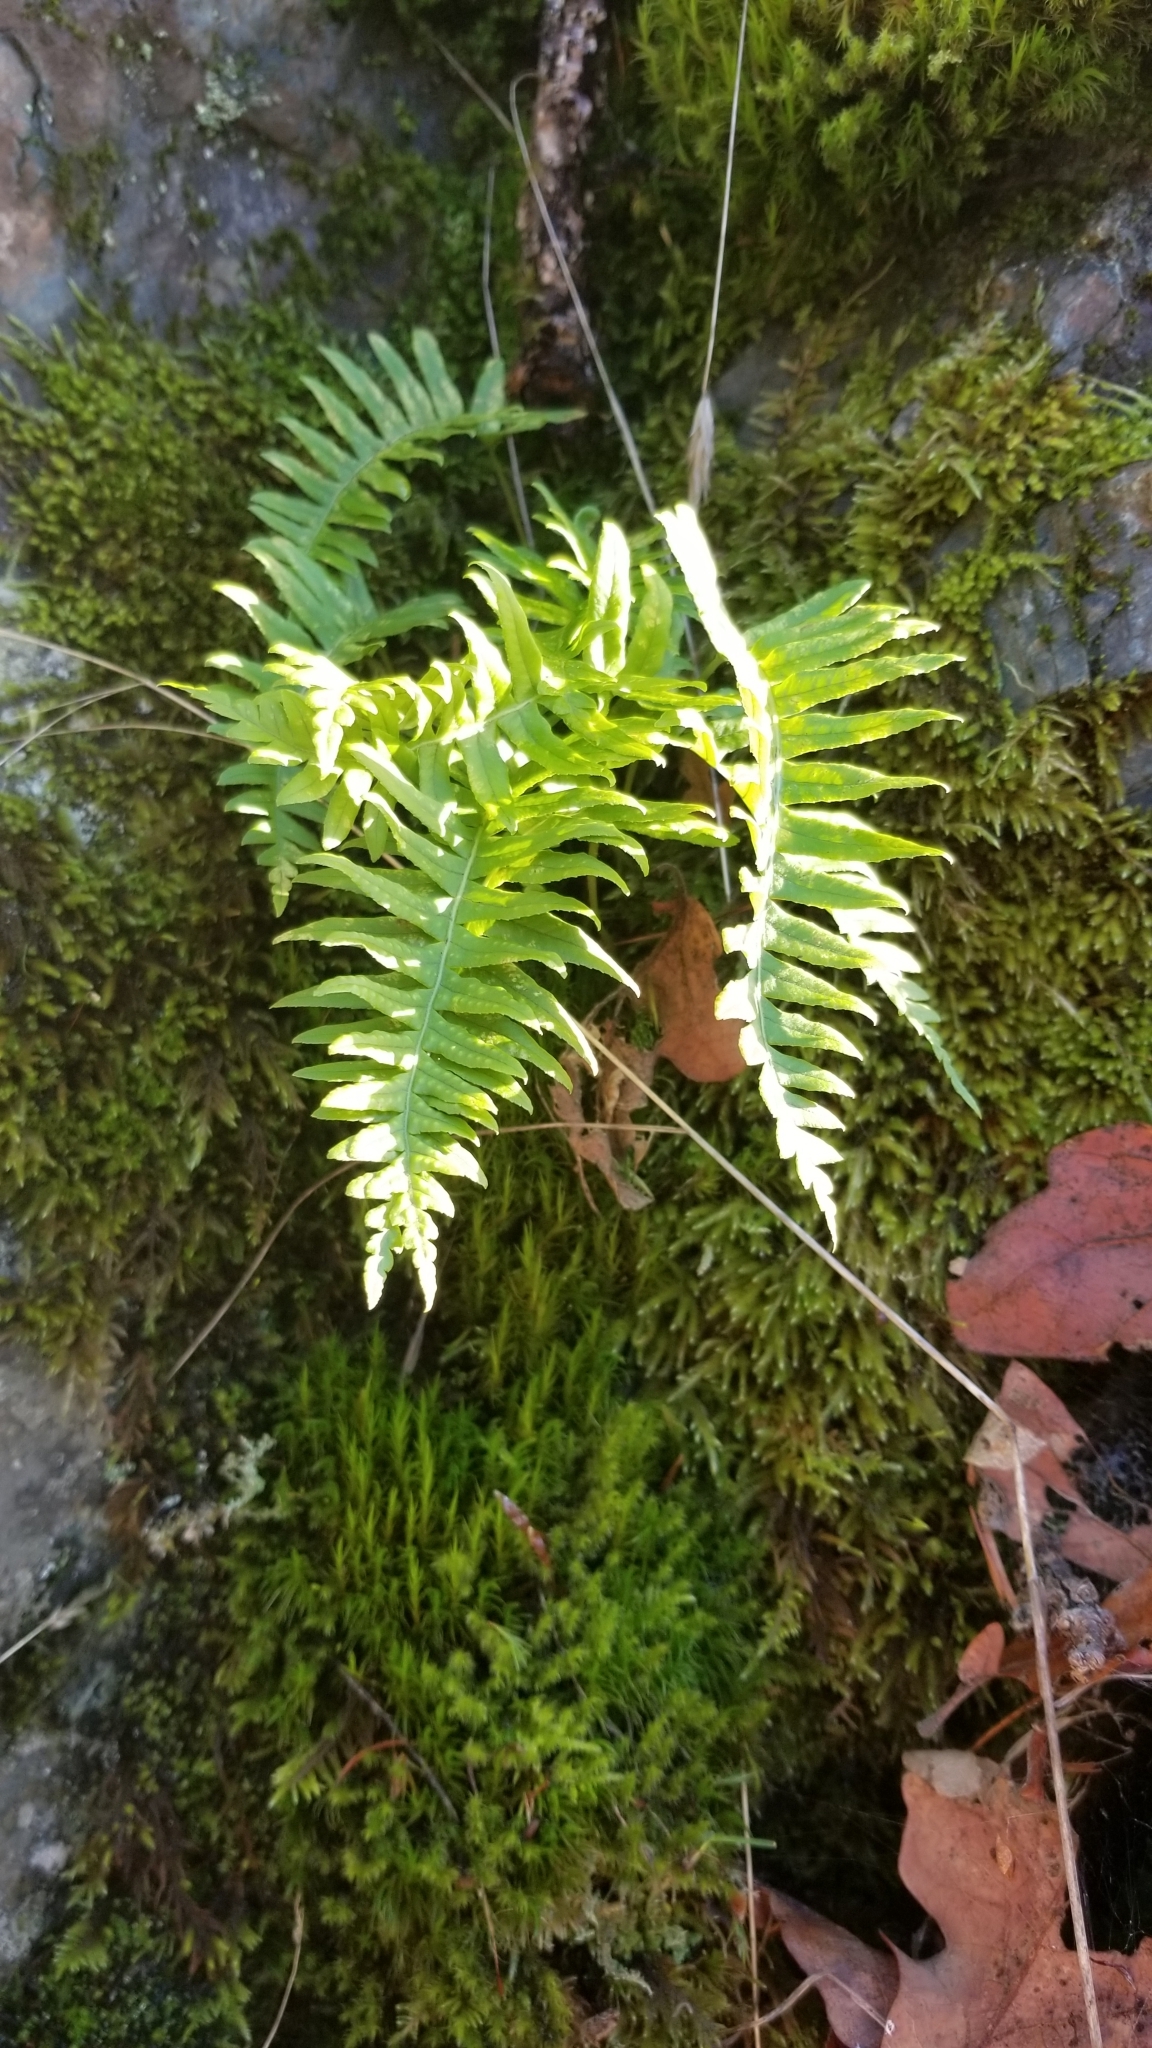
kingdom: Plantae
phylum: Tracheophyta
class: Polypodiopsida
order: Polypodiales
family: Polypodiaceae
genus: Polypodium
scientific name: Polypodium glycyrrhiza
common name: Licorice fern
